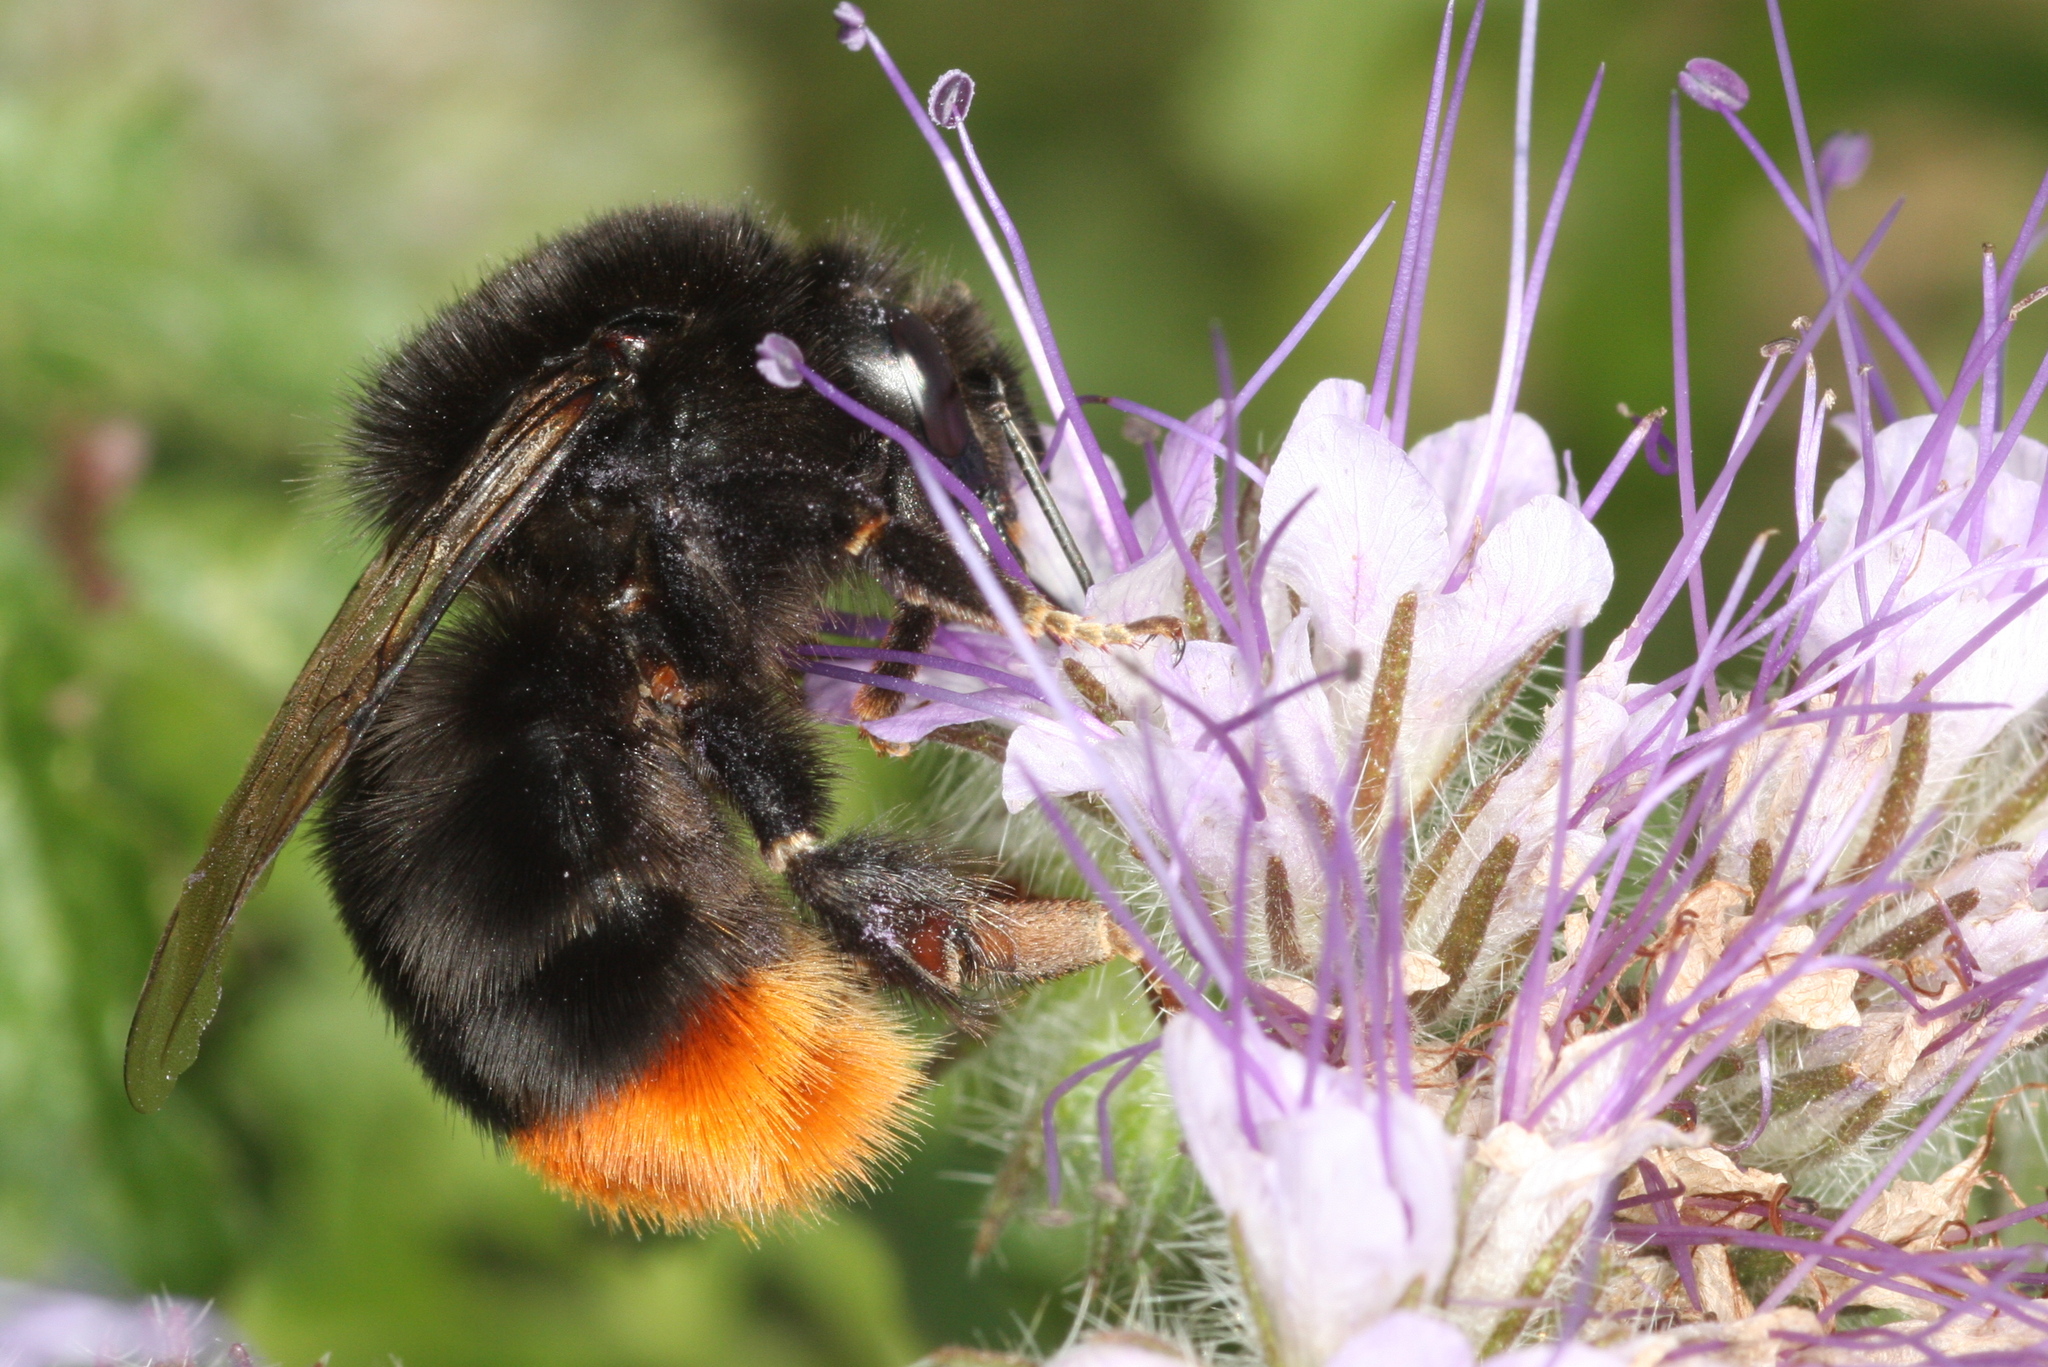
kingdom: Animalia
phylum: Arthropoda
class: Insecta
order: Hymenoptera
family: Apidae
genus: Bombus
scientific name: Bombus lapidarius
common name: Large red-tailed humble-bee
